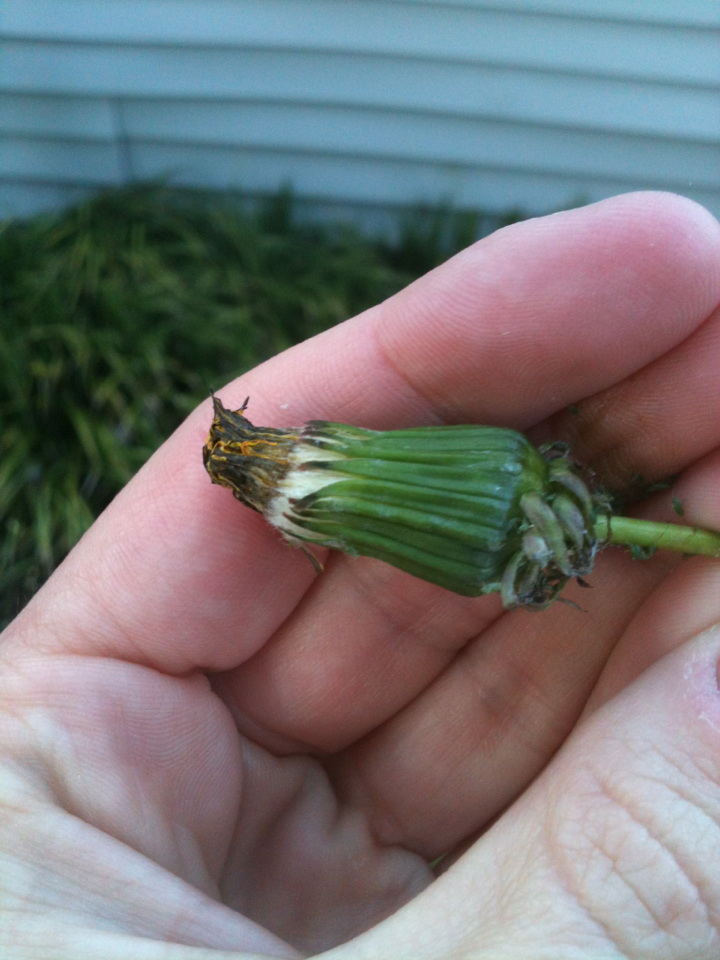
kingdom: Plantae
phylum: Tracheophyta
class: Magnoliopsida
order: Asterales
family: Asteraceae
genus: Taraxacum
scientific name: Taraxacum officinale
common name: Common dandelion
